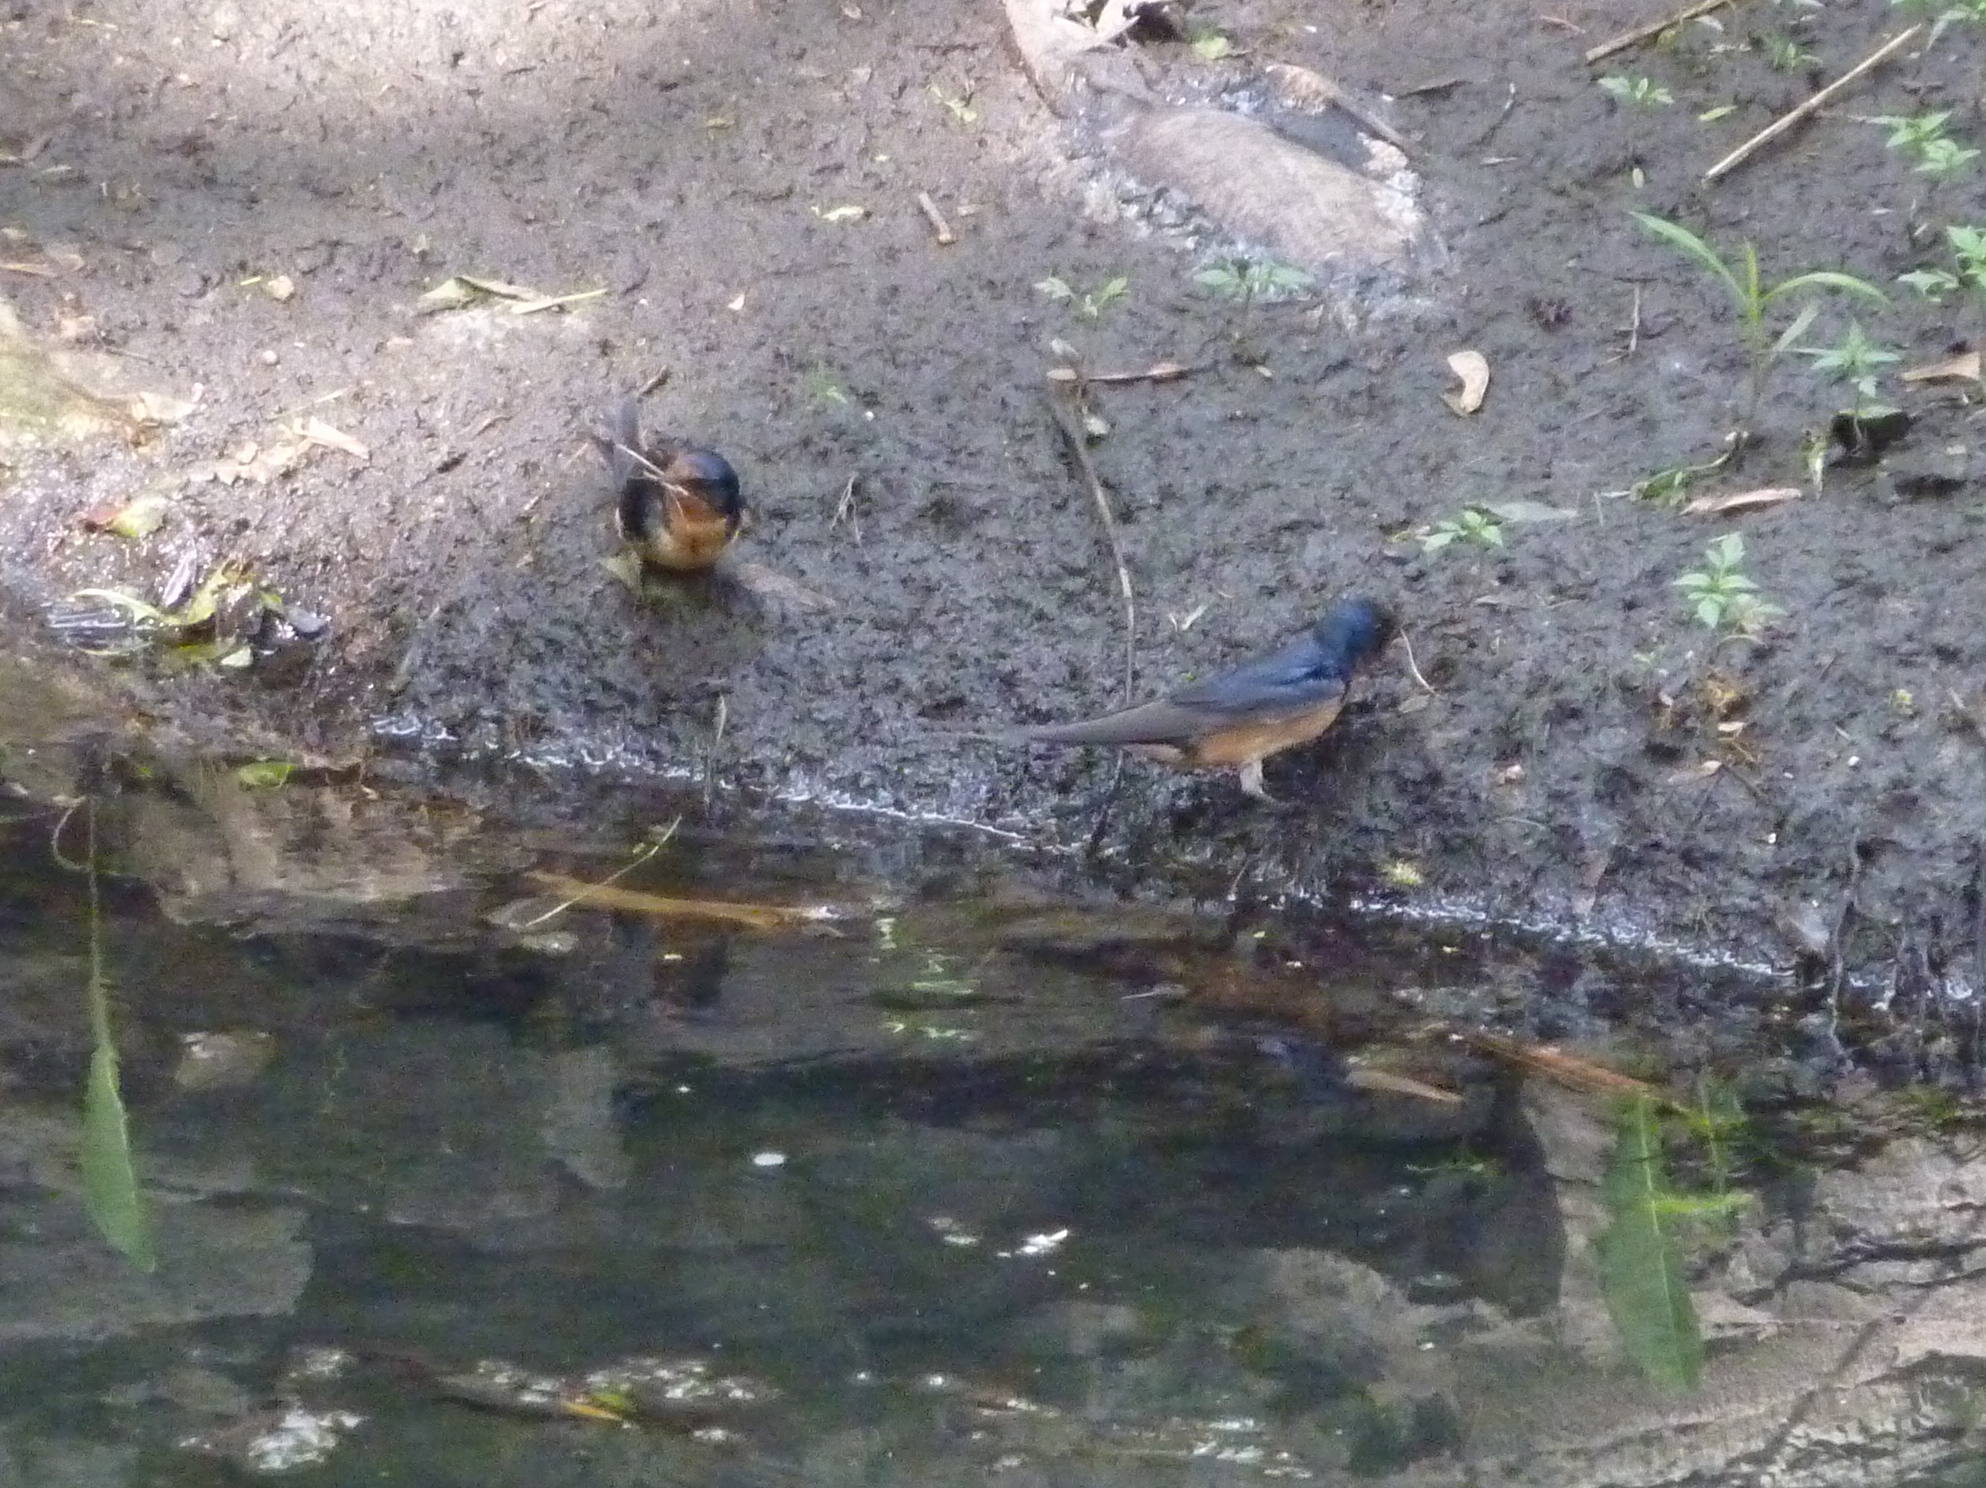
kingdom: Animalia
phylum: Chordata
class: Aves
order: Passeriformes
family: Hirundinidae
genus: Hirundo
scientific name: Hirundo rustica
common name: Barn swallow
